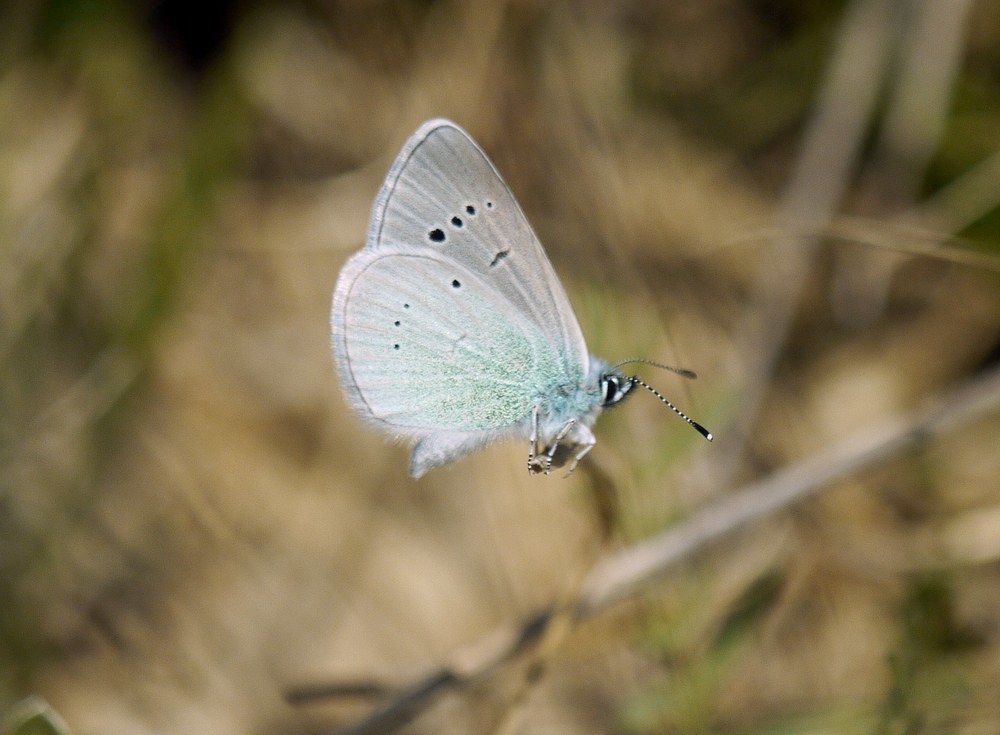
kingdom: Animalia
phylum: Arthropoda
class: Insecta
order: Lepidoptera
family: Lycaenidae
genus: Glaucopsyche
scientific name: Glaucopsyche alexis
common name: Green-underside blue
